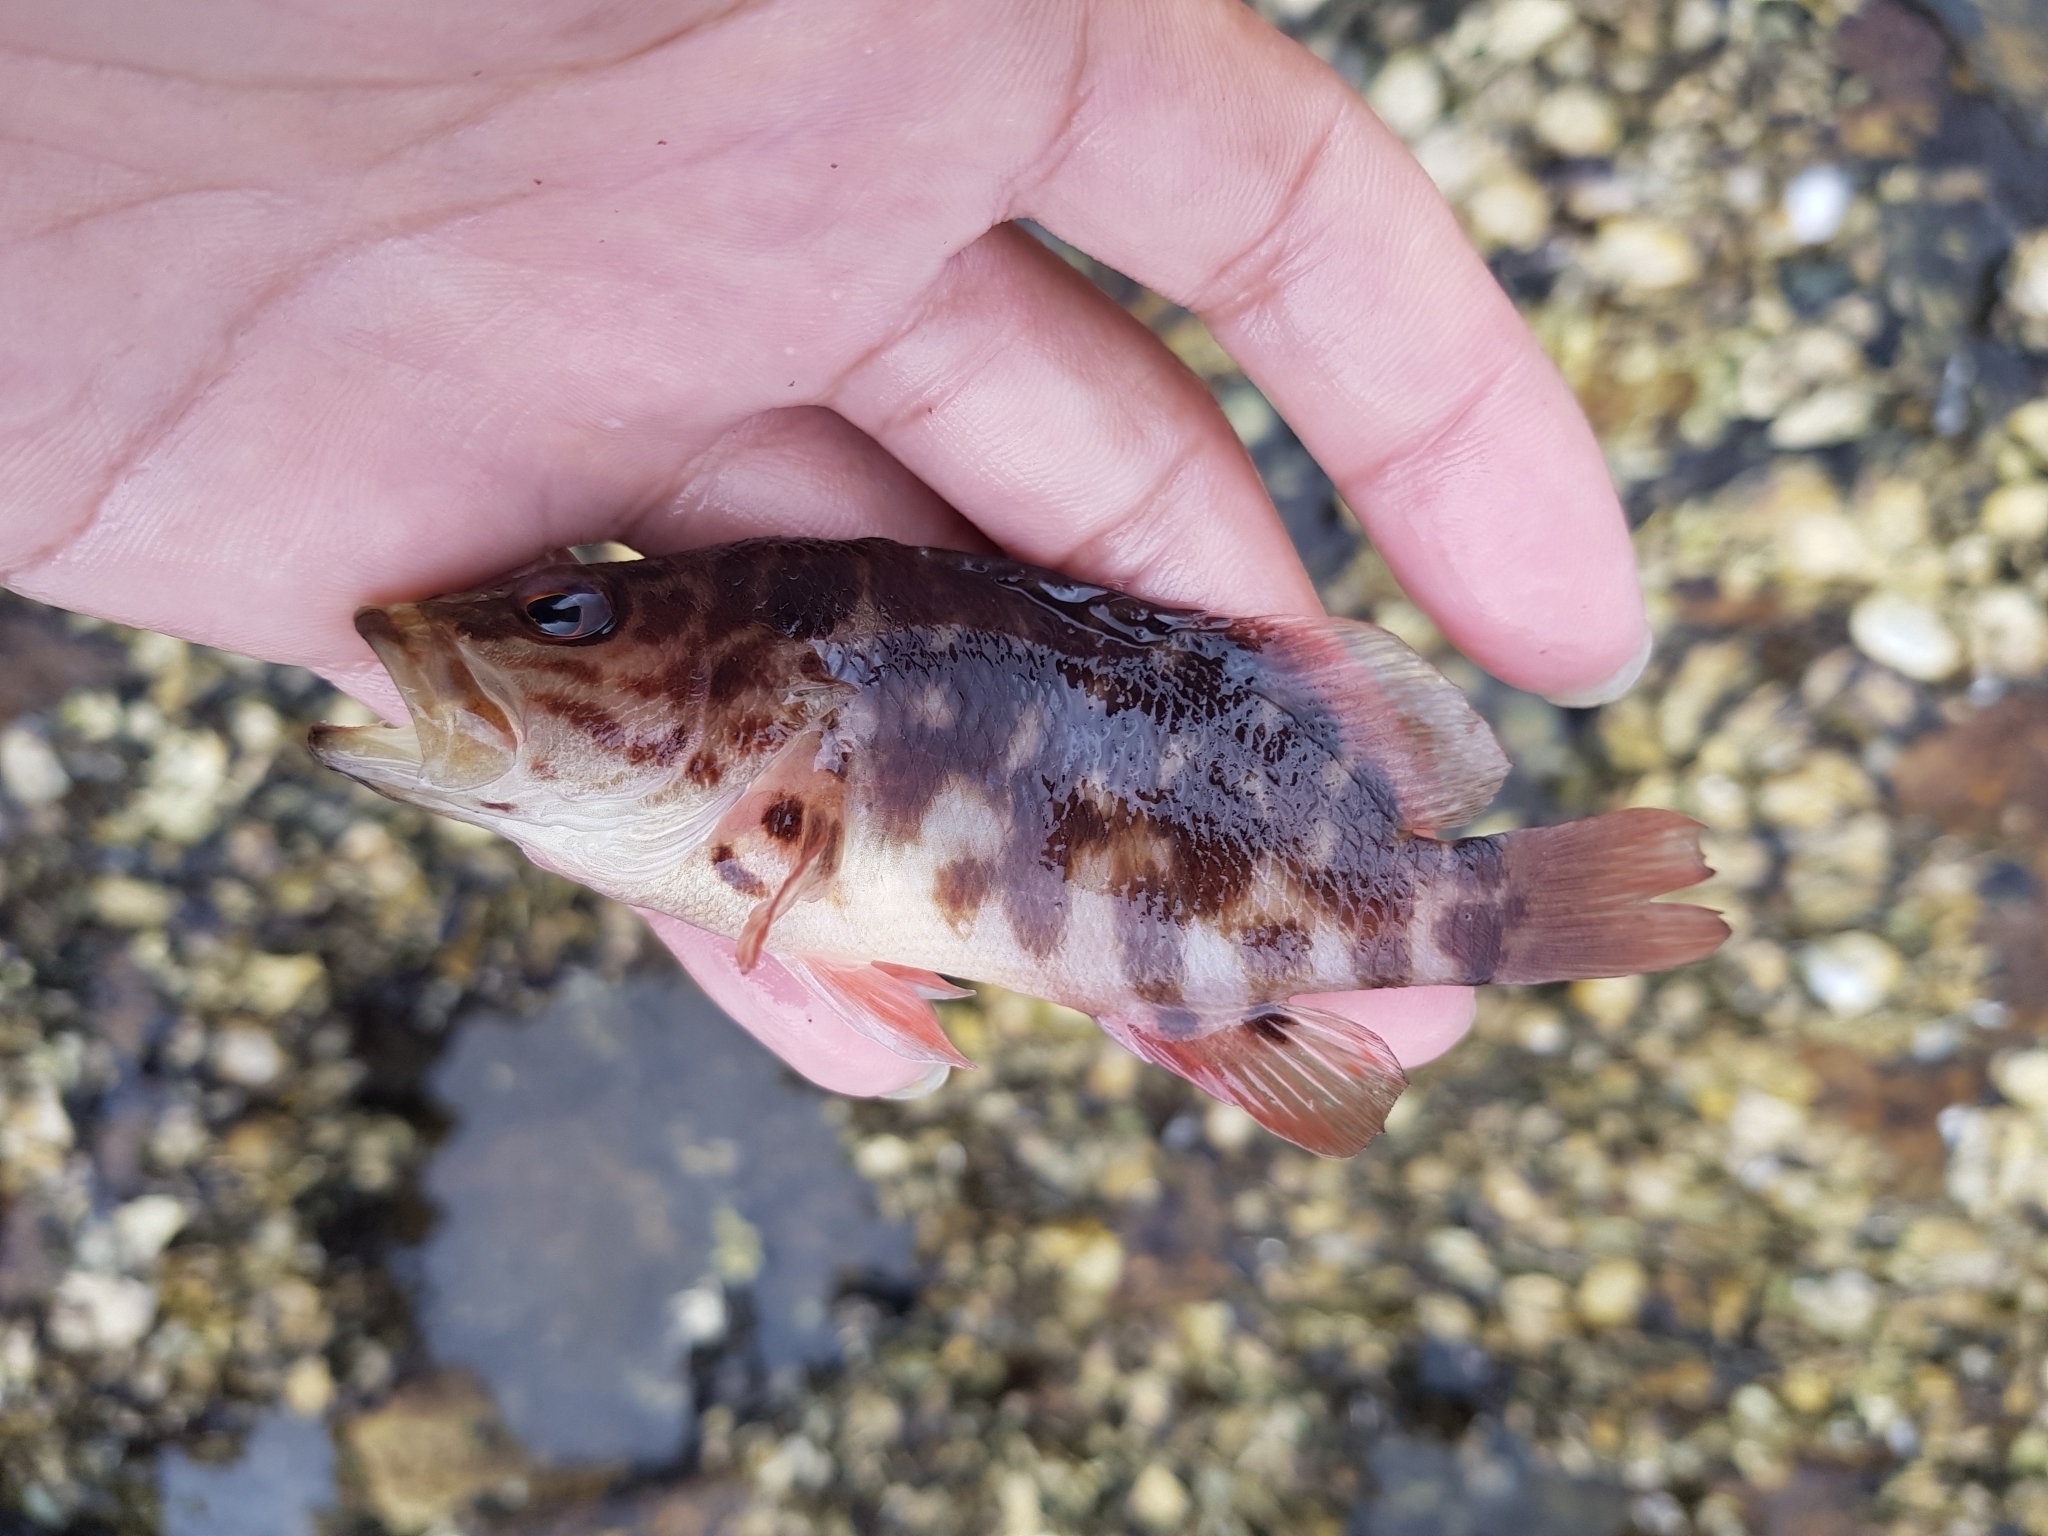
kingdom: Animalia
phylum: Chordata
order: Perciformes
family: Serranidae
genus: Hypoplectrodes
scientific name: Hypoplectrodes jamesoni
